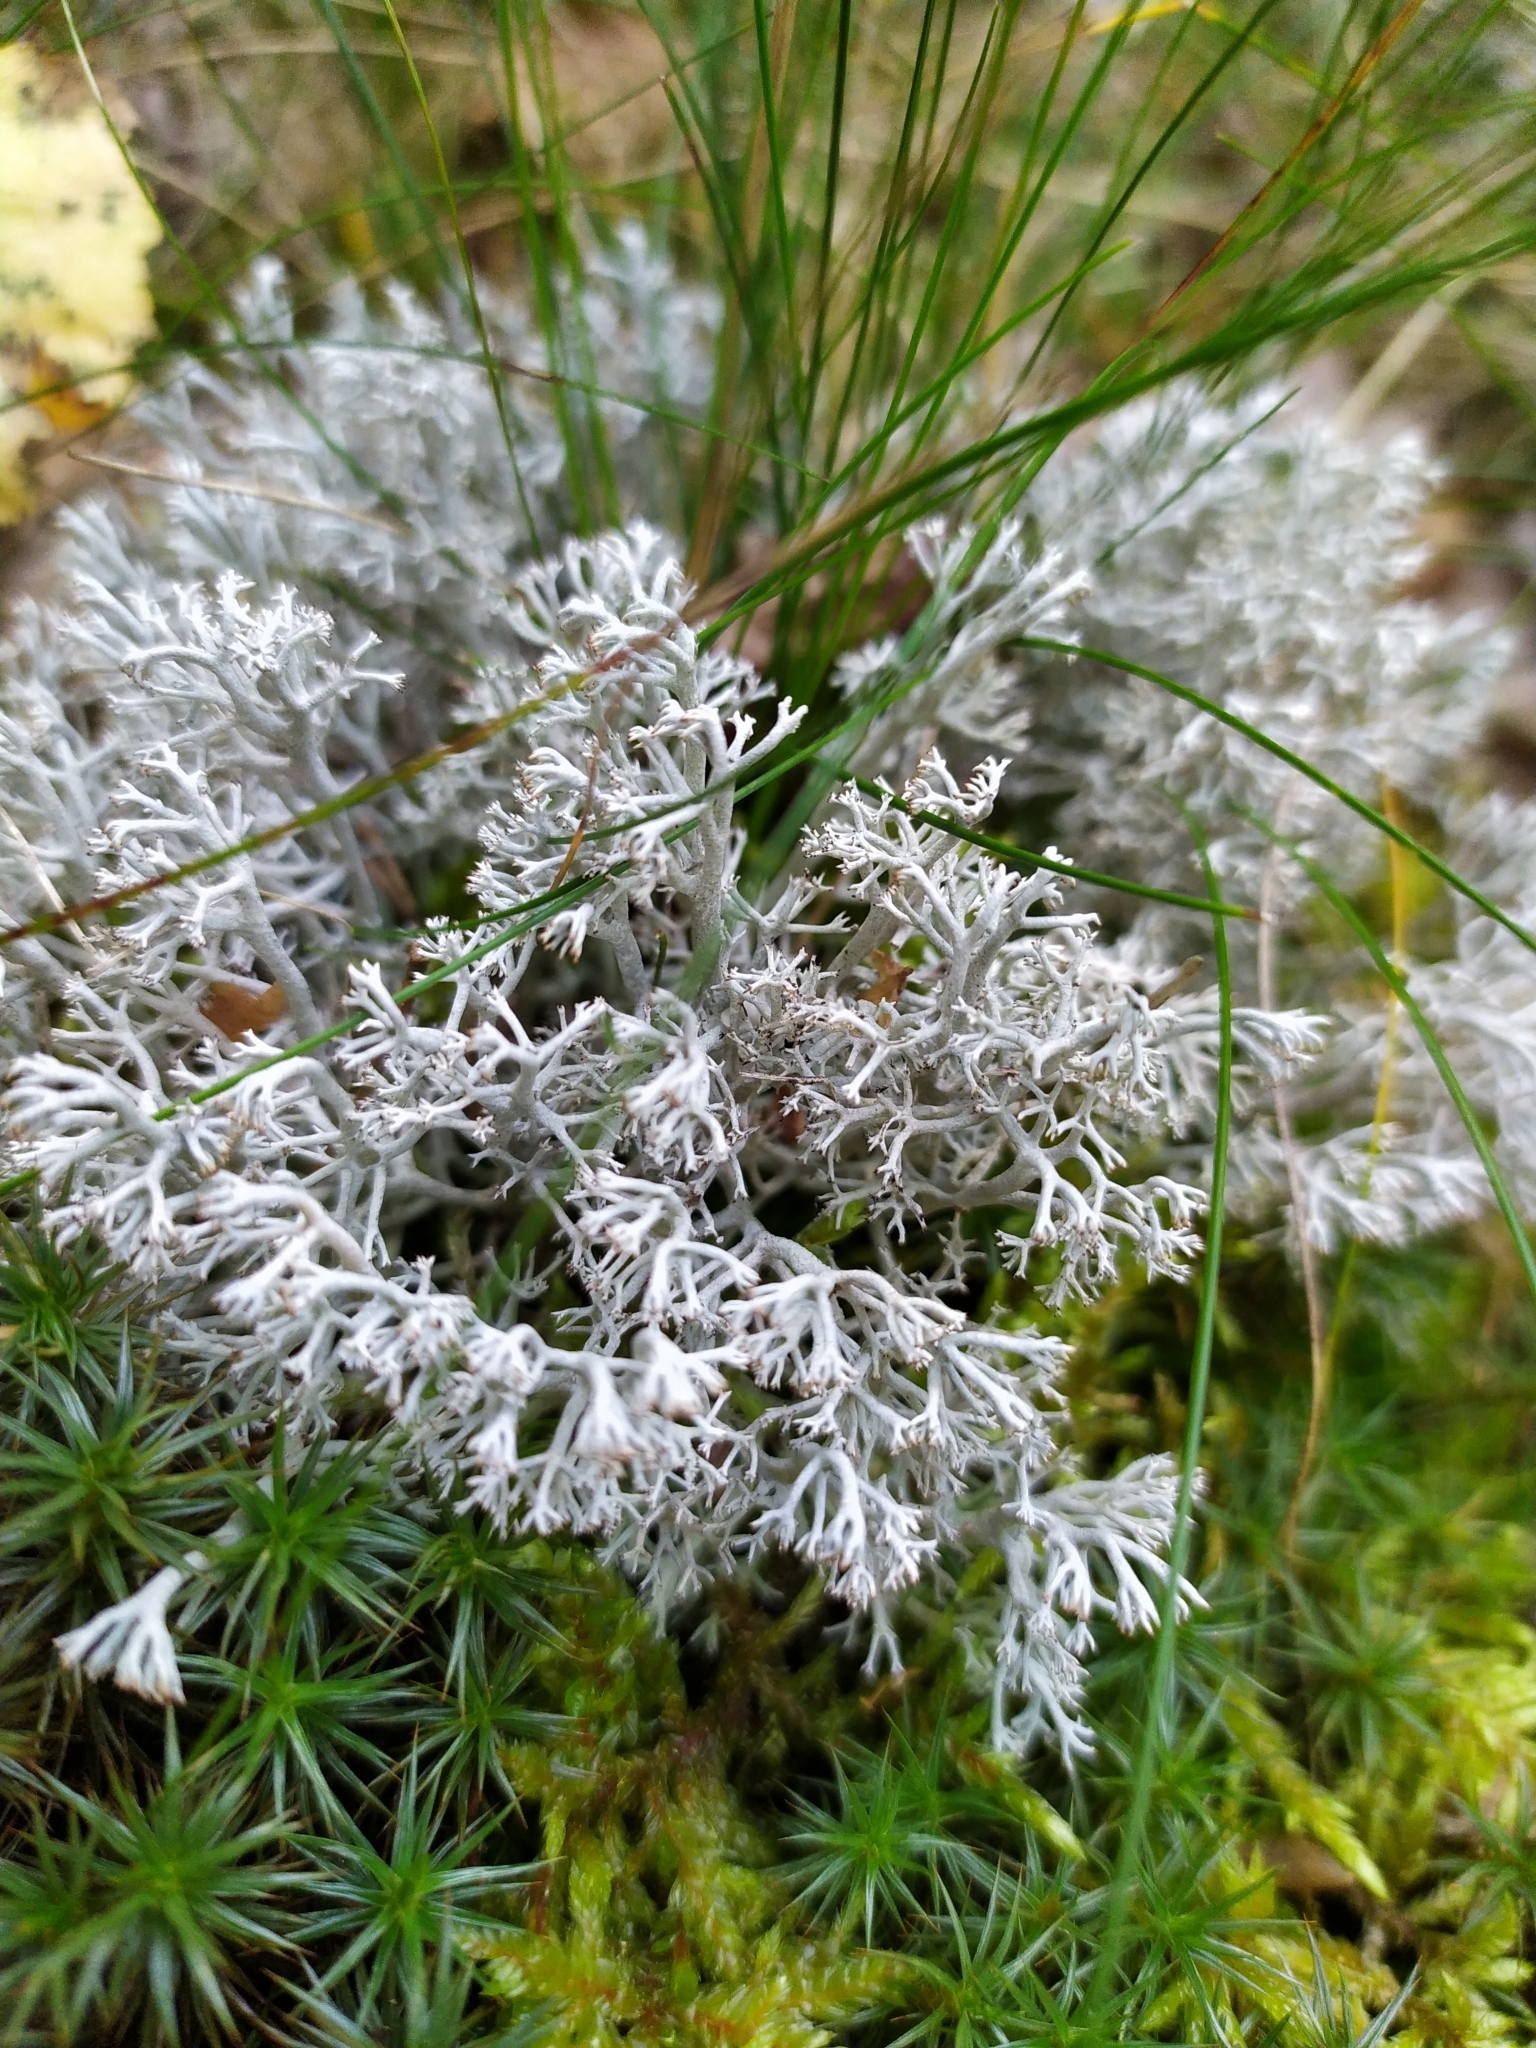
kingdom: Fungi
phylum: Ascomycota
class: Lecanoromycetes
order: Lecanorales
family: Cladoniaceae
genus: Cladonia
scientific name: Cladonia rangiferina
